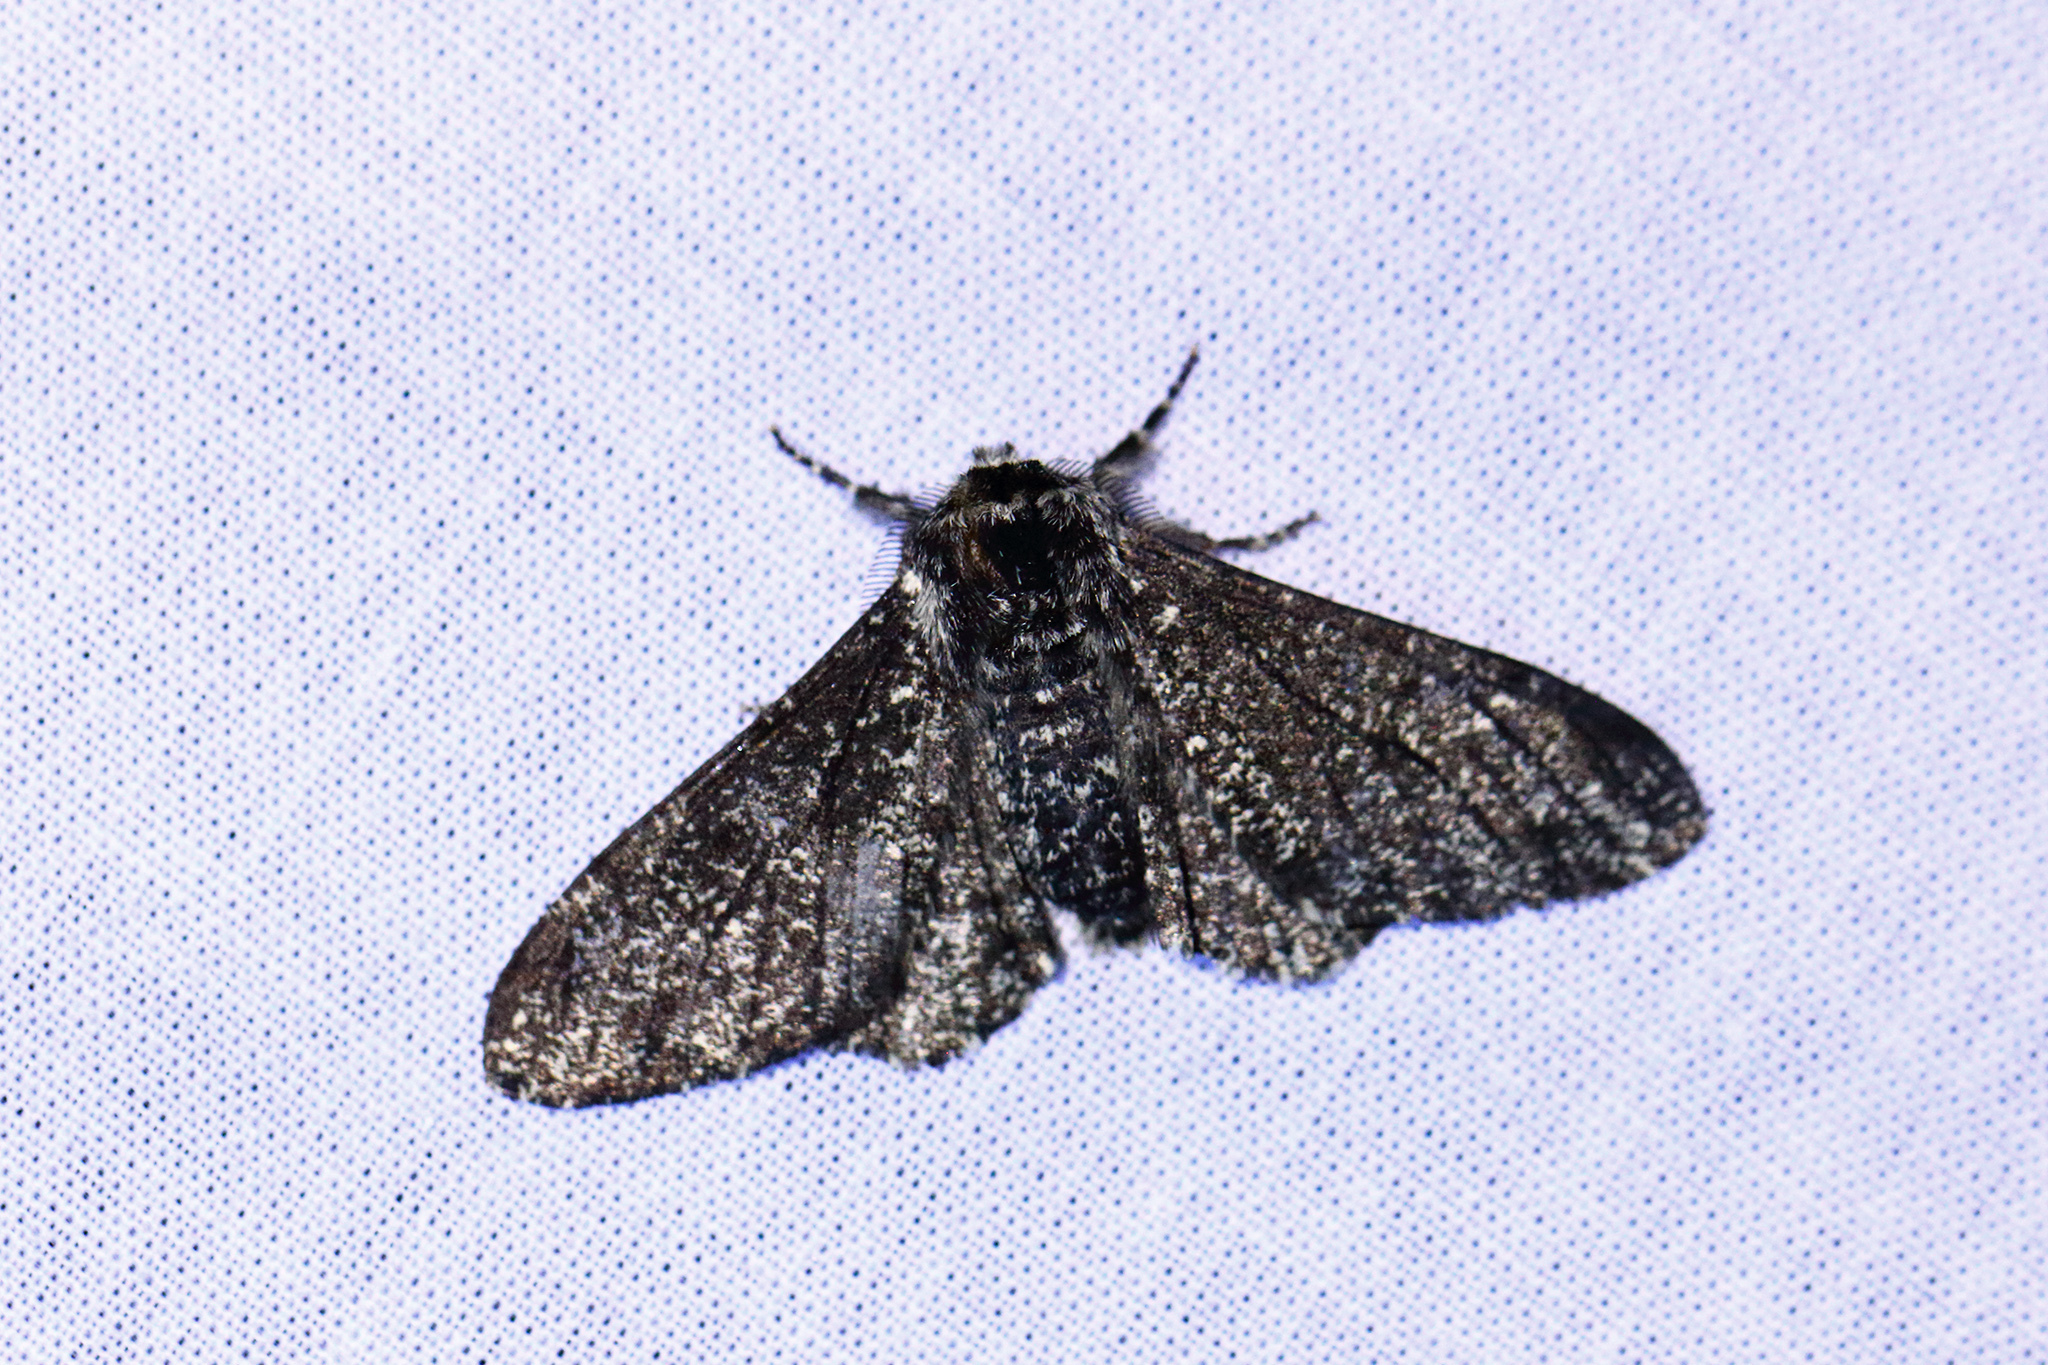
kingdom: Animalia
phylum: Arthropoda
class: Insecta
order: Lepidoptera
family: Geometridae
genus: Biston
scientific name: Biston betularia
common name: Peppered moth
